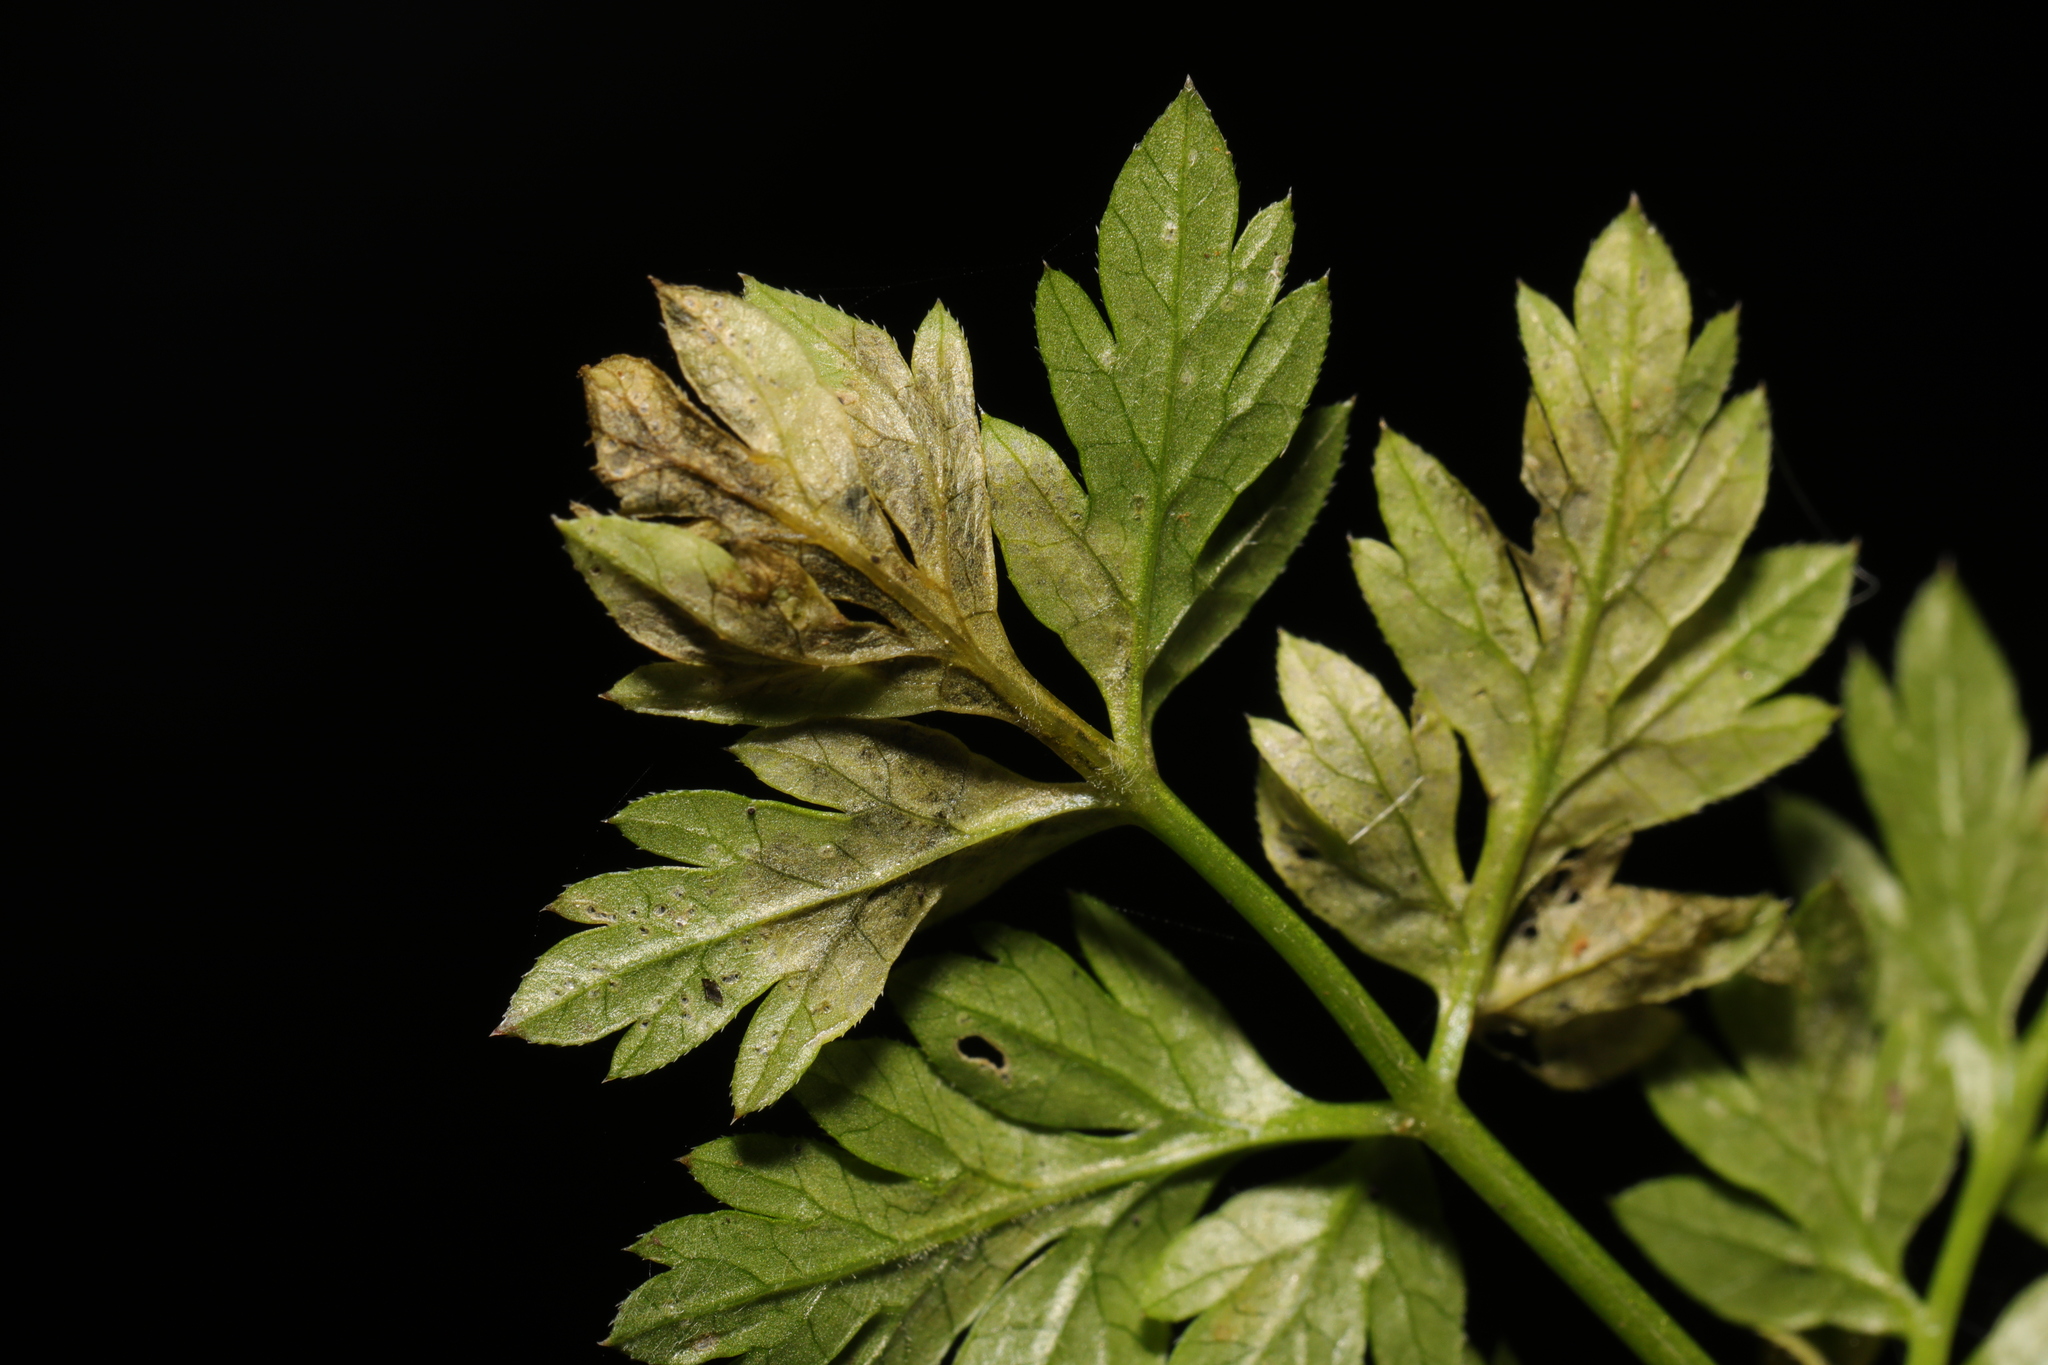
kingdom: Animalia
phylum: Arthropoda
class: Insecta
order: Diptera
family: Agromyzidae
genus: Phytomyza
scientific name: Phytomyza chaerophylli
